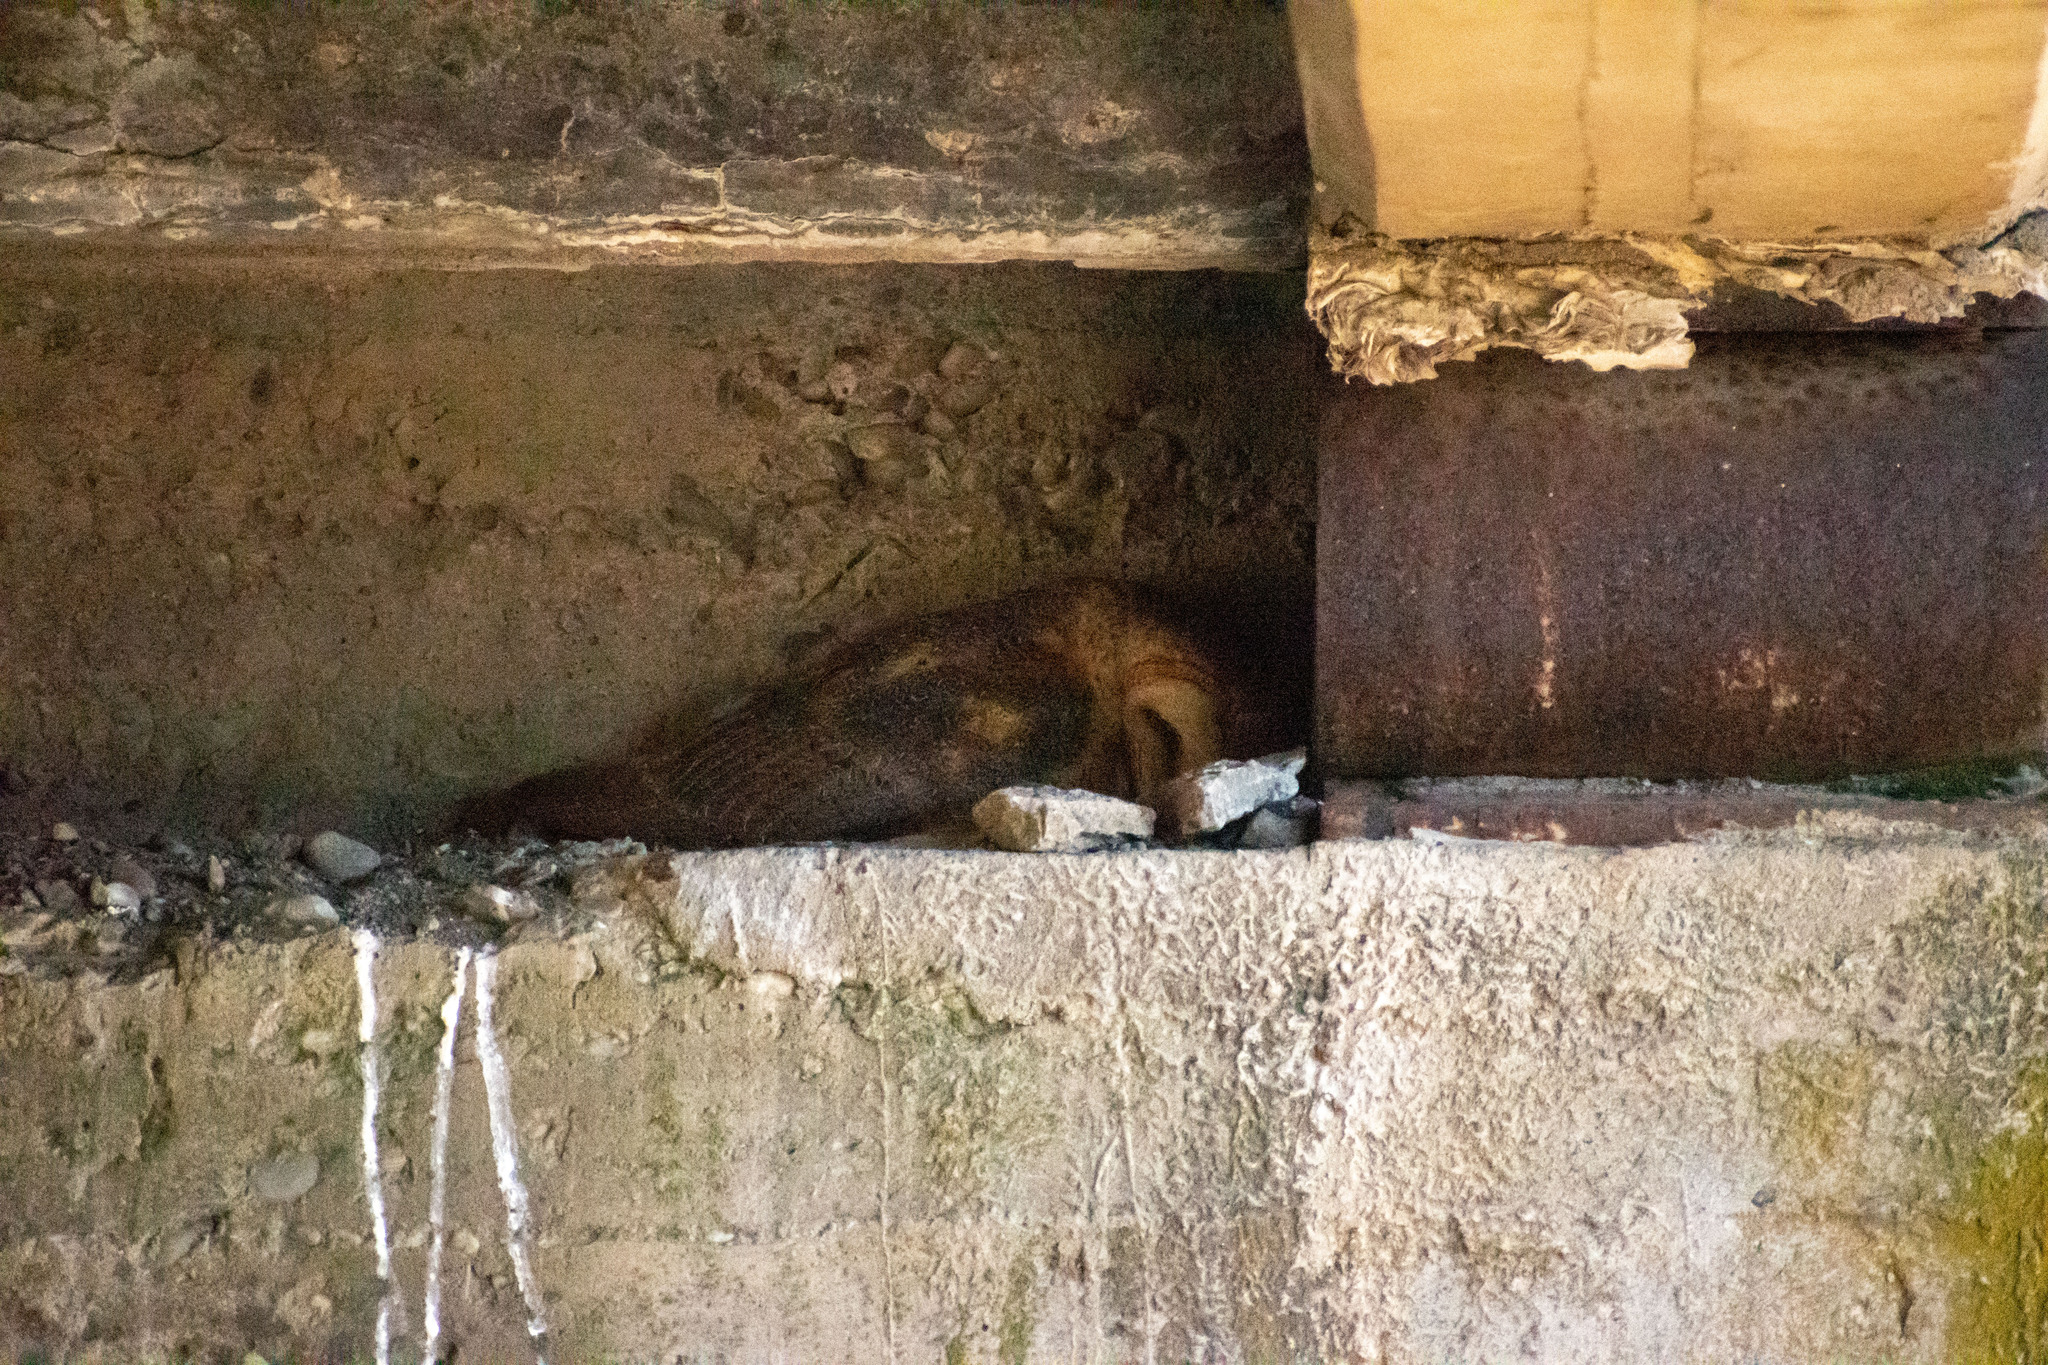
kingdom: Animalia
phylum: Chordata
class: Aves
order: Strigiformes
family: Tytonidae
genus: Tyto
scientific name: Tyto alba
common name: Barn owl
